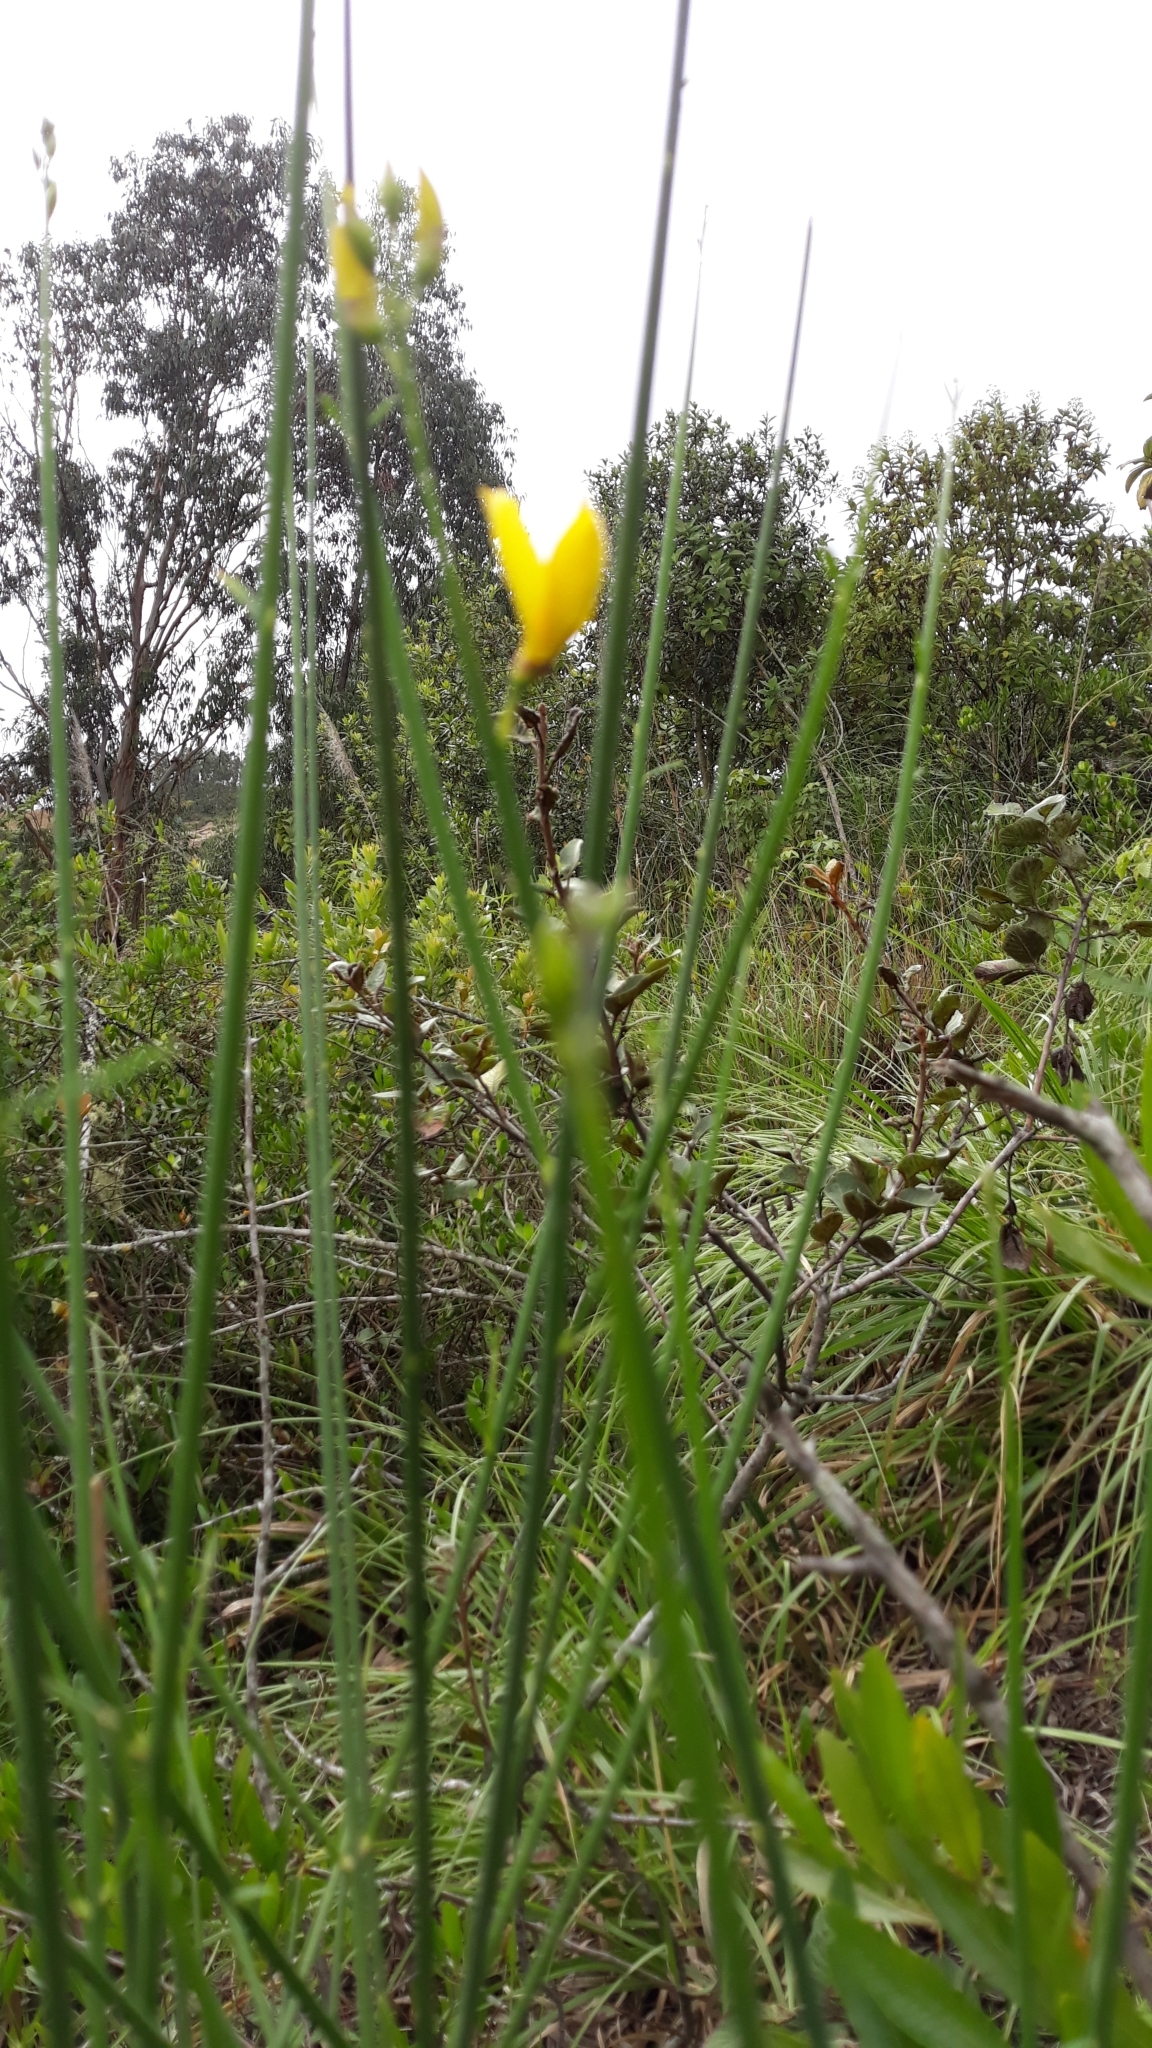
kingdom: Plantae
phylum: Tracheophyta
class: Magnoliopsida
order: Fabales
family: Fabaceae
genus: Spartium
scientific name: Spartium junceum
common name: Spanish broom
